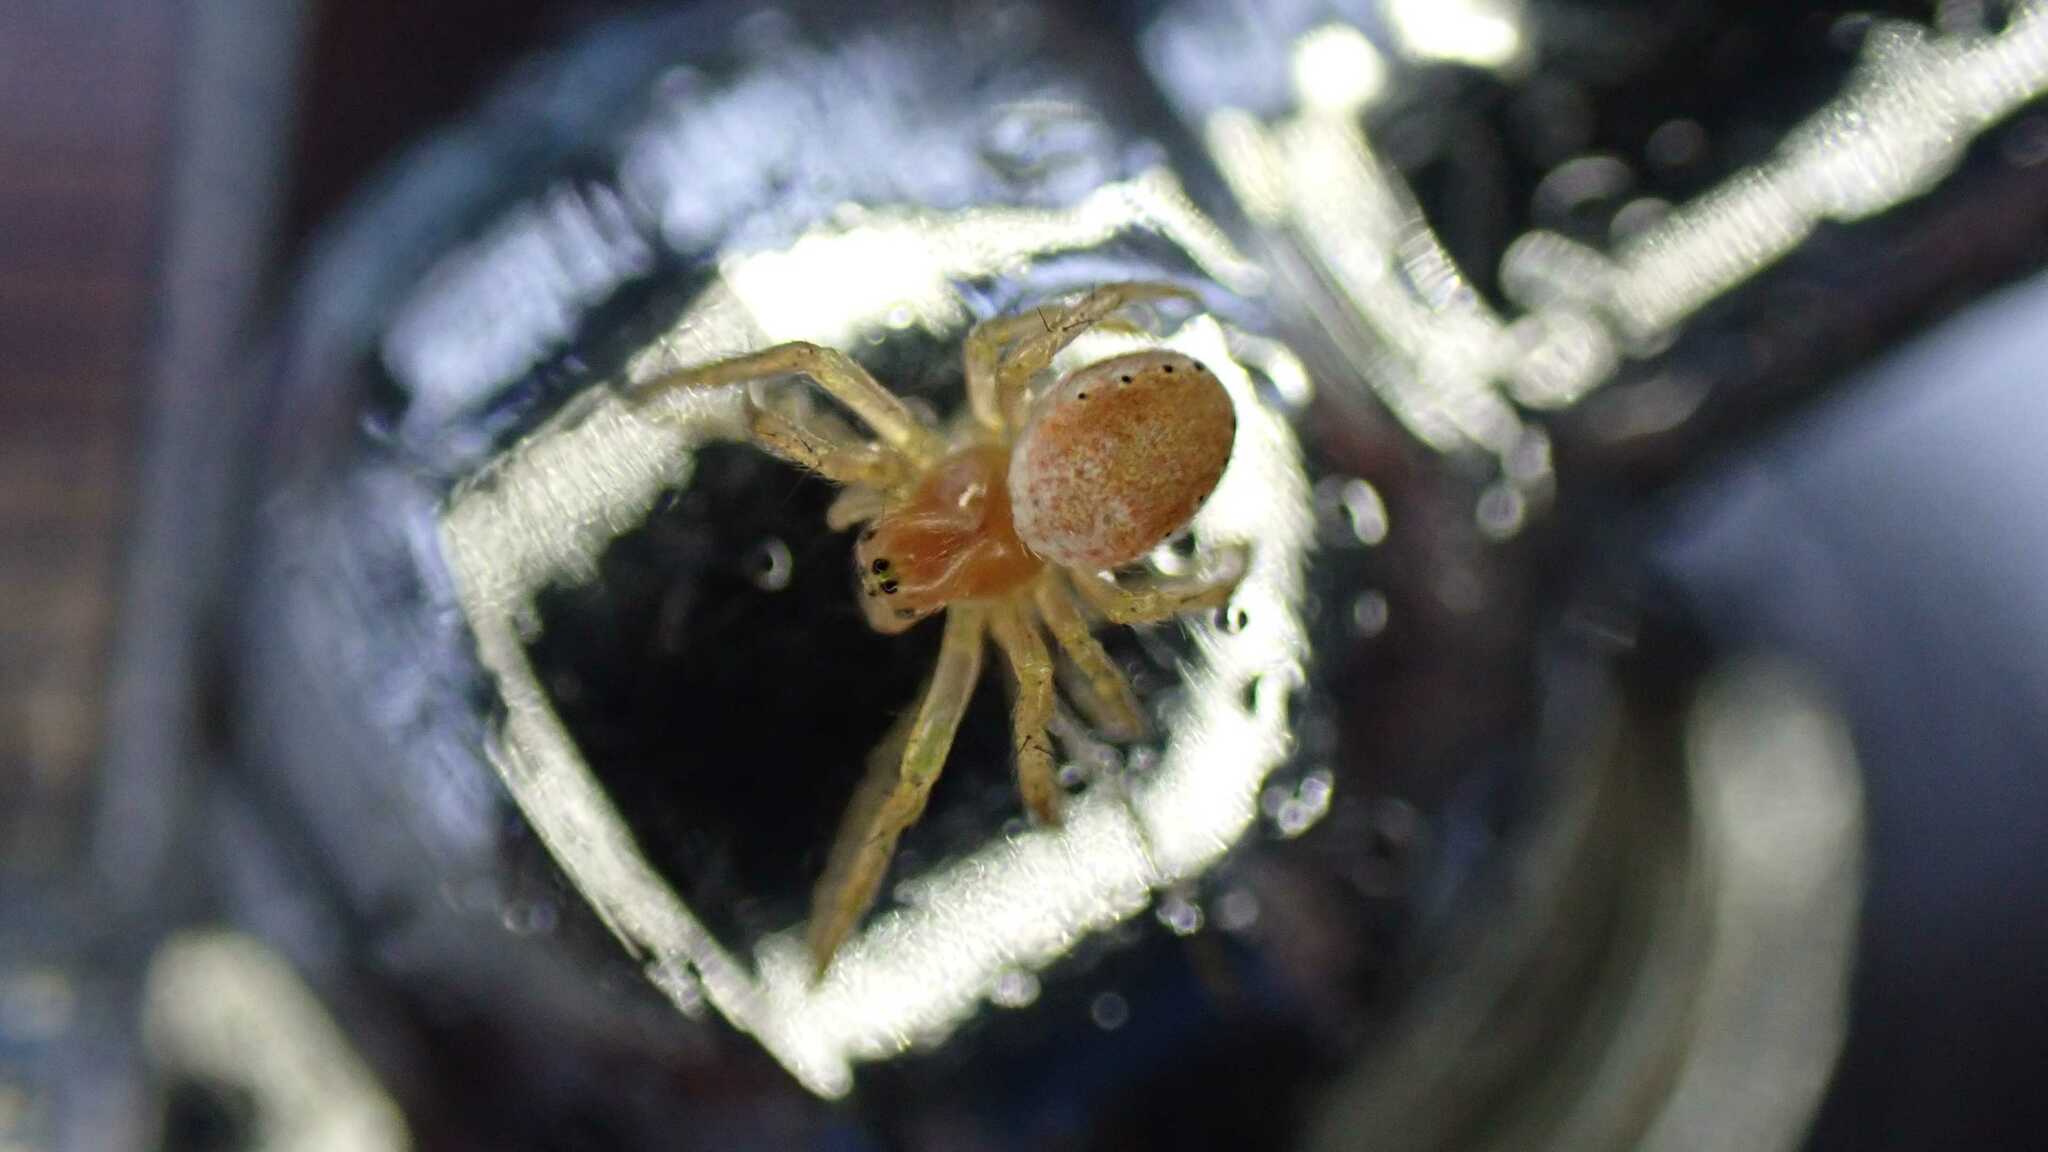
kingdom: Animalia
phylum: Arthropoda
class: Arachnida
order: Araneae
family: Araneidae
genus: Araniella
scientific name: Araniella
